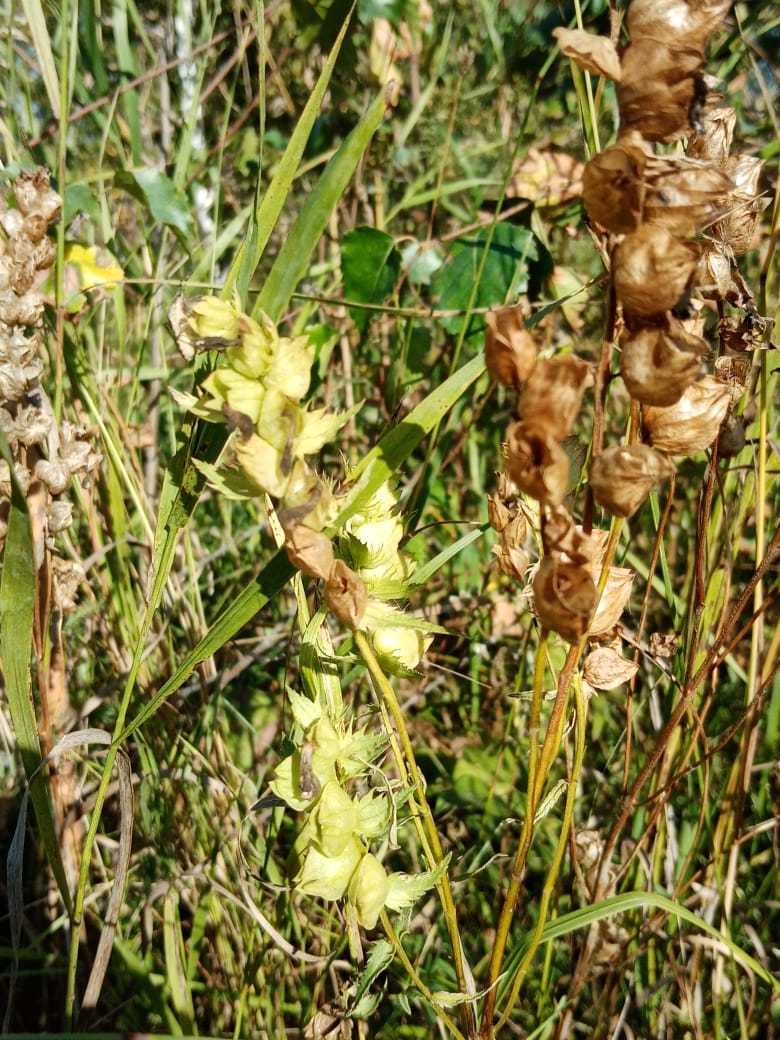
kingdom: Plantae
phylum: Tracheophyta
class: Magnoliopsida
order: Lamiales
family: Orobanchaceae
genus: Rhinanthus
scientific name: Rhinanthus serotinus
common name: Late-flowering yellow rattle
